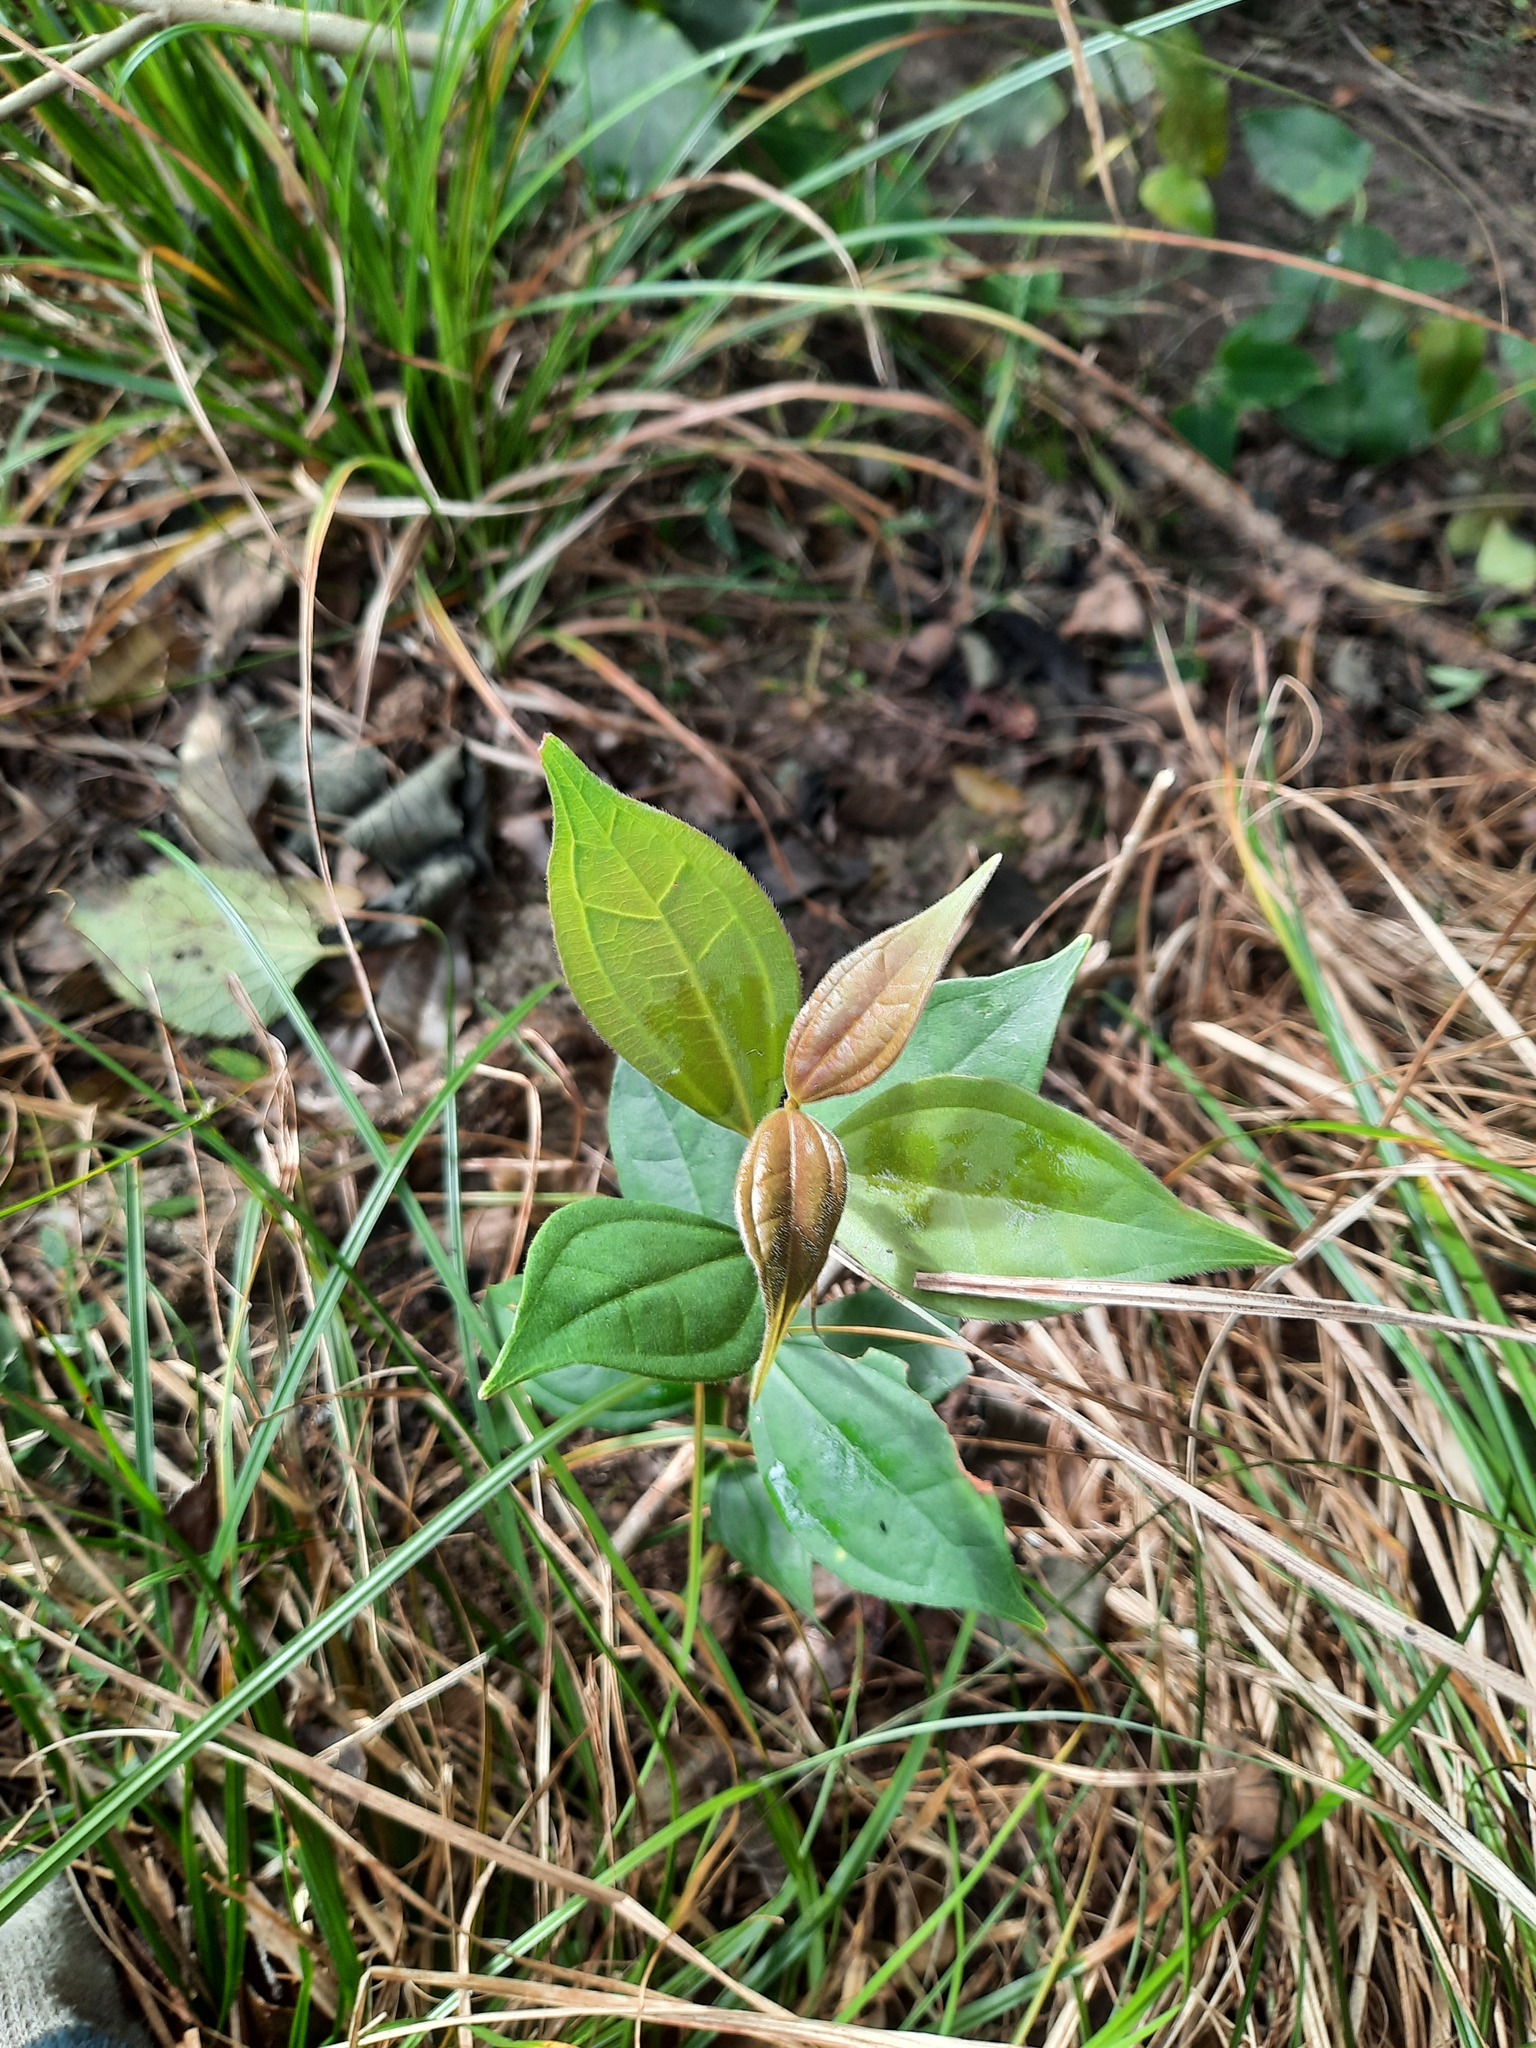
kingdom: Plantae
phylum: Tracheophyta
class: Magnoliopsida
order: Myrtales
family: Myrtaceae
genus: Rhodamnia
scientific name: Rhodamnia rubescens
